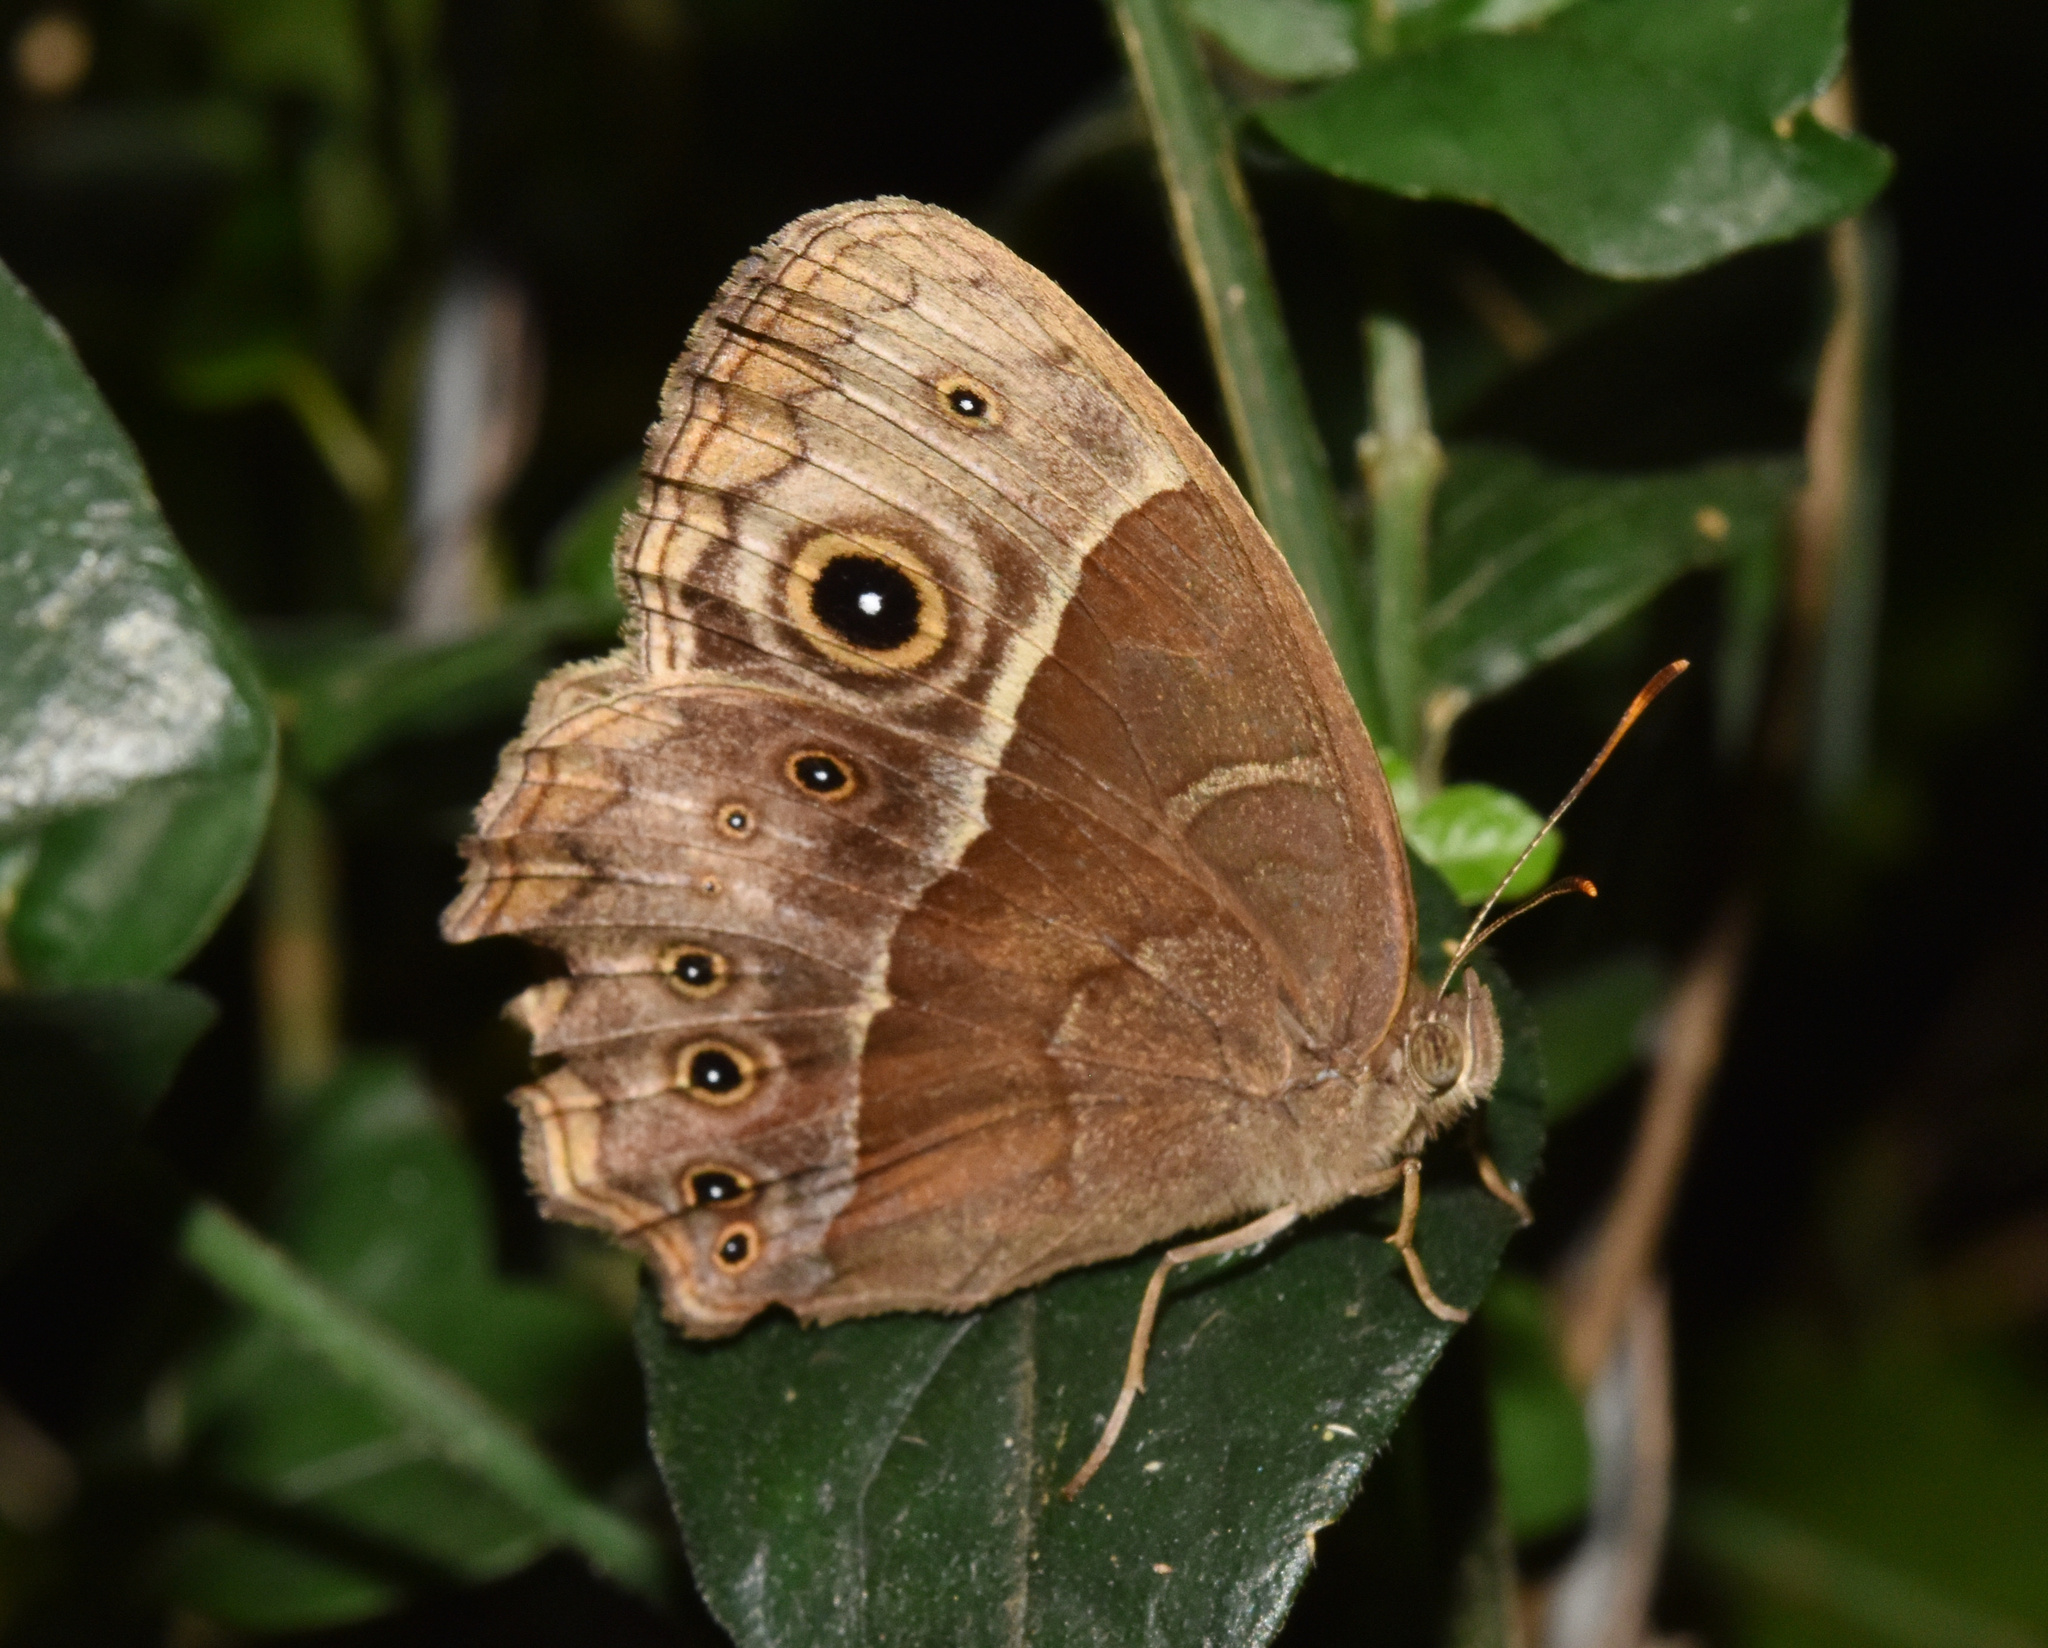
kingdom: Animalia
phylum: Arthropoda
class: Insecta
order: Lepidoptera
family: Nymphalidae
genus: Mycalesis
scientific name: Mycalesis rhacotis
